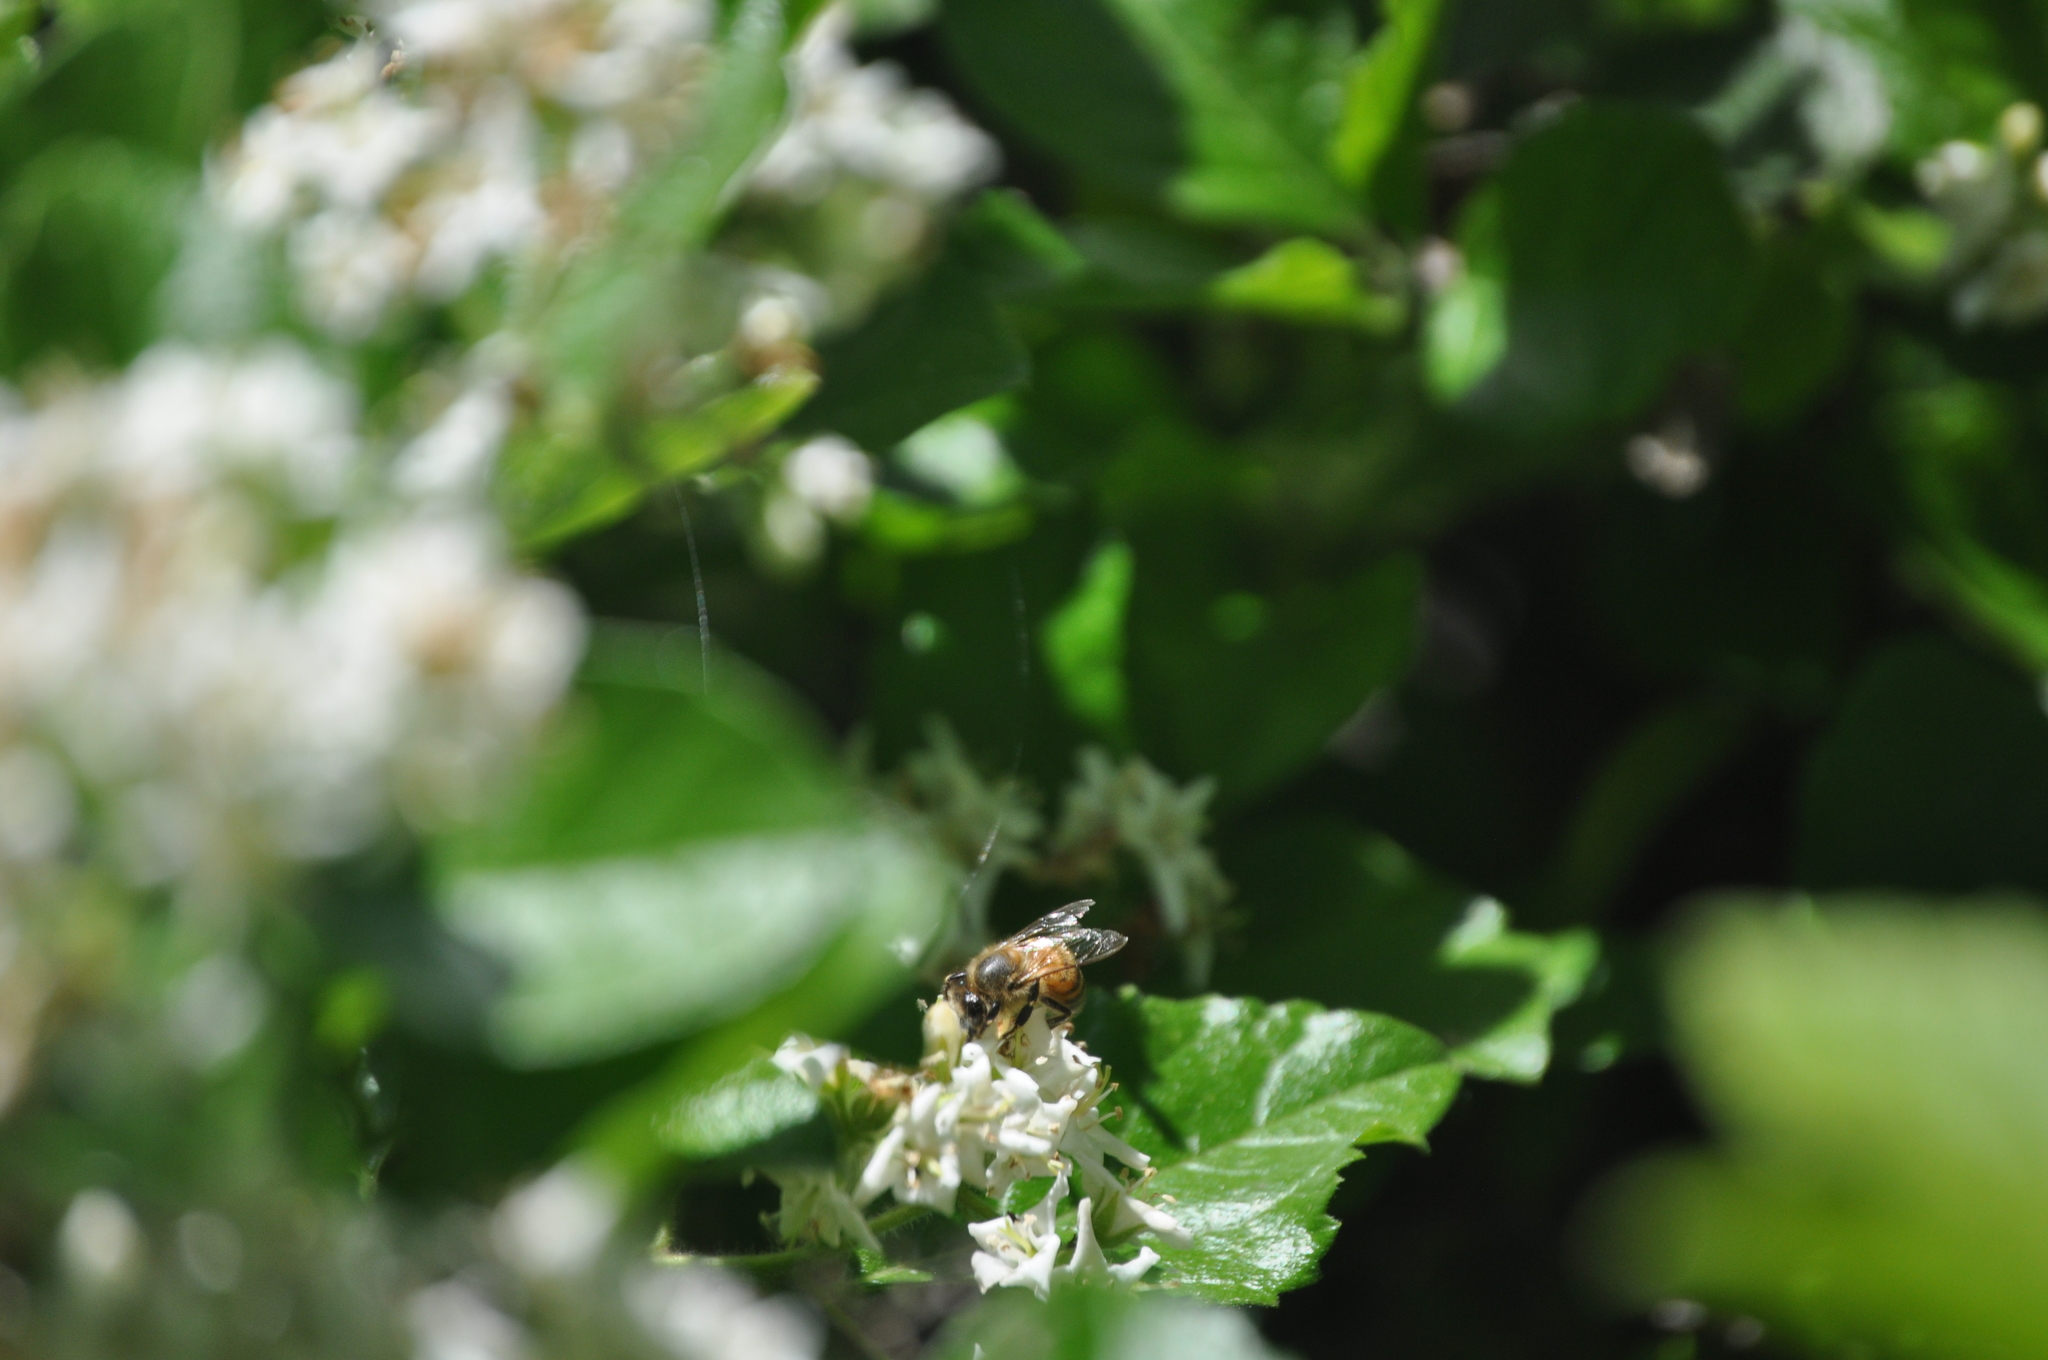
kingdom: Animalia
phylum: Arthropoda
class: Insecta
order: Hymenoptera
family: Apidae
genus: Apis
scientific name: Apis mellifera
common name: Honey bee
